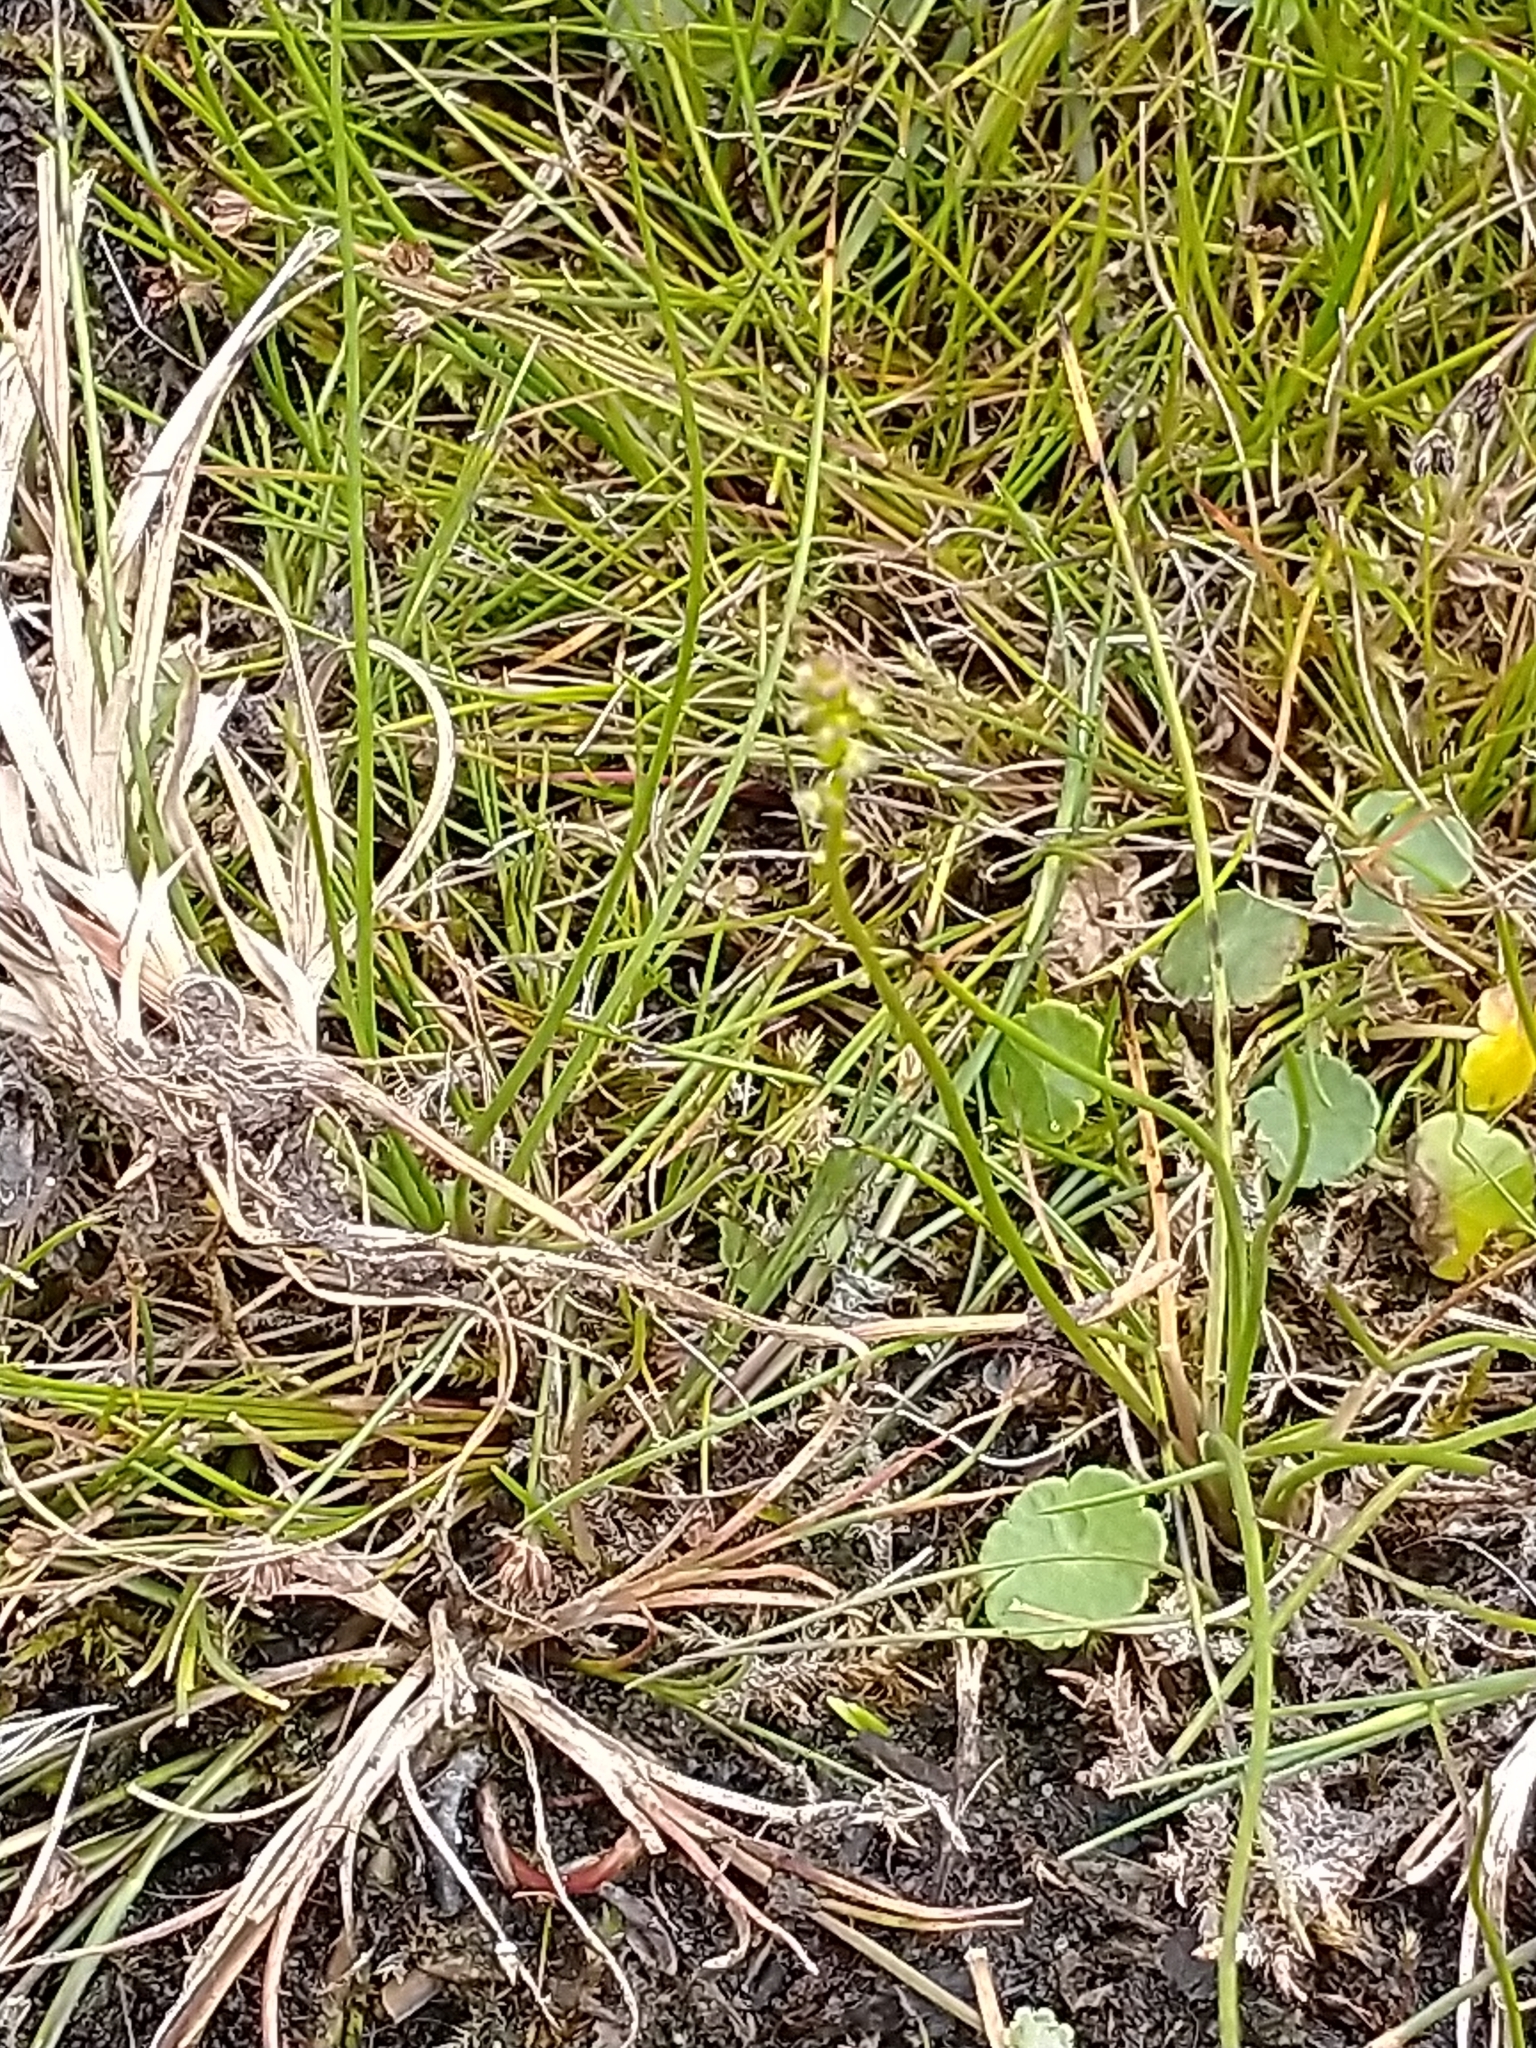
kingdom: Plantae
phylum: Tracheophyta
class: Liliopsida
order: Alismatales
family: Juncaginaceae
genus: Triglochin
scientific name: Triglochin palustris
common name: Marsh arrowgrass
